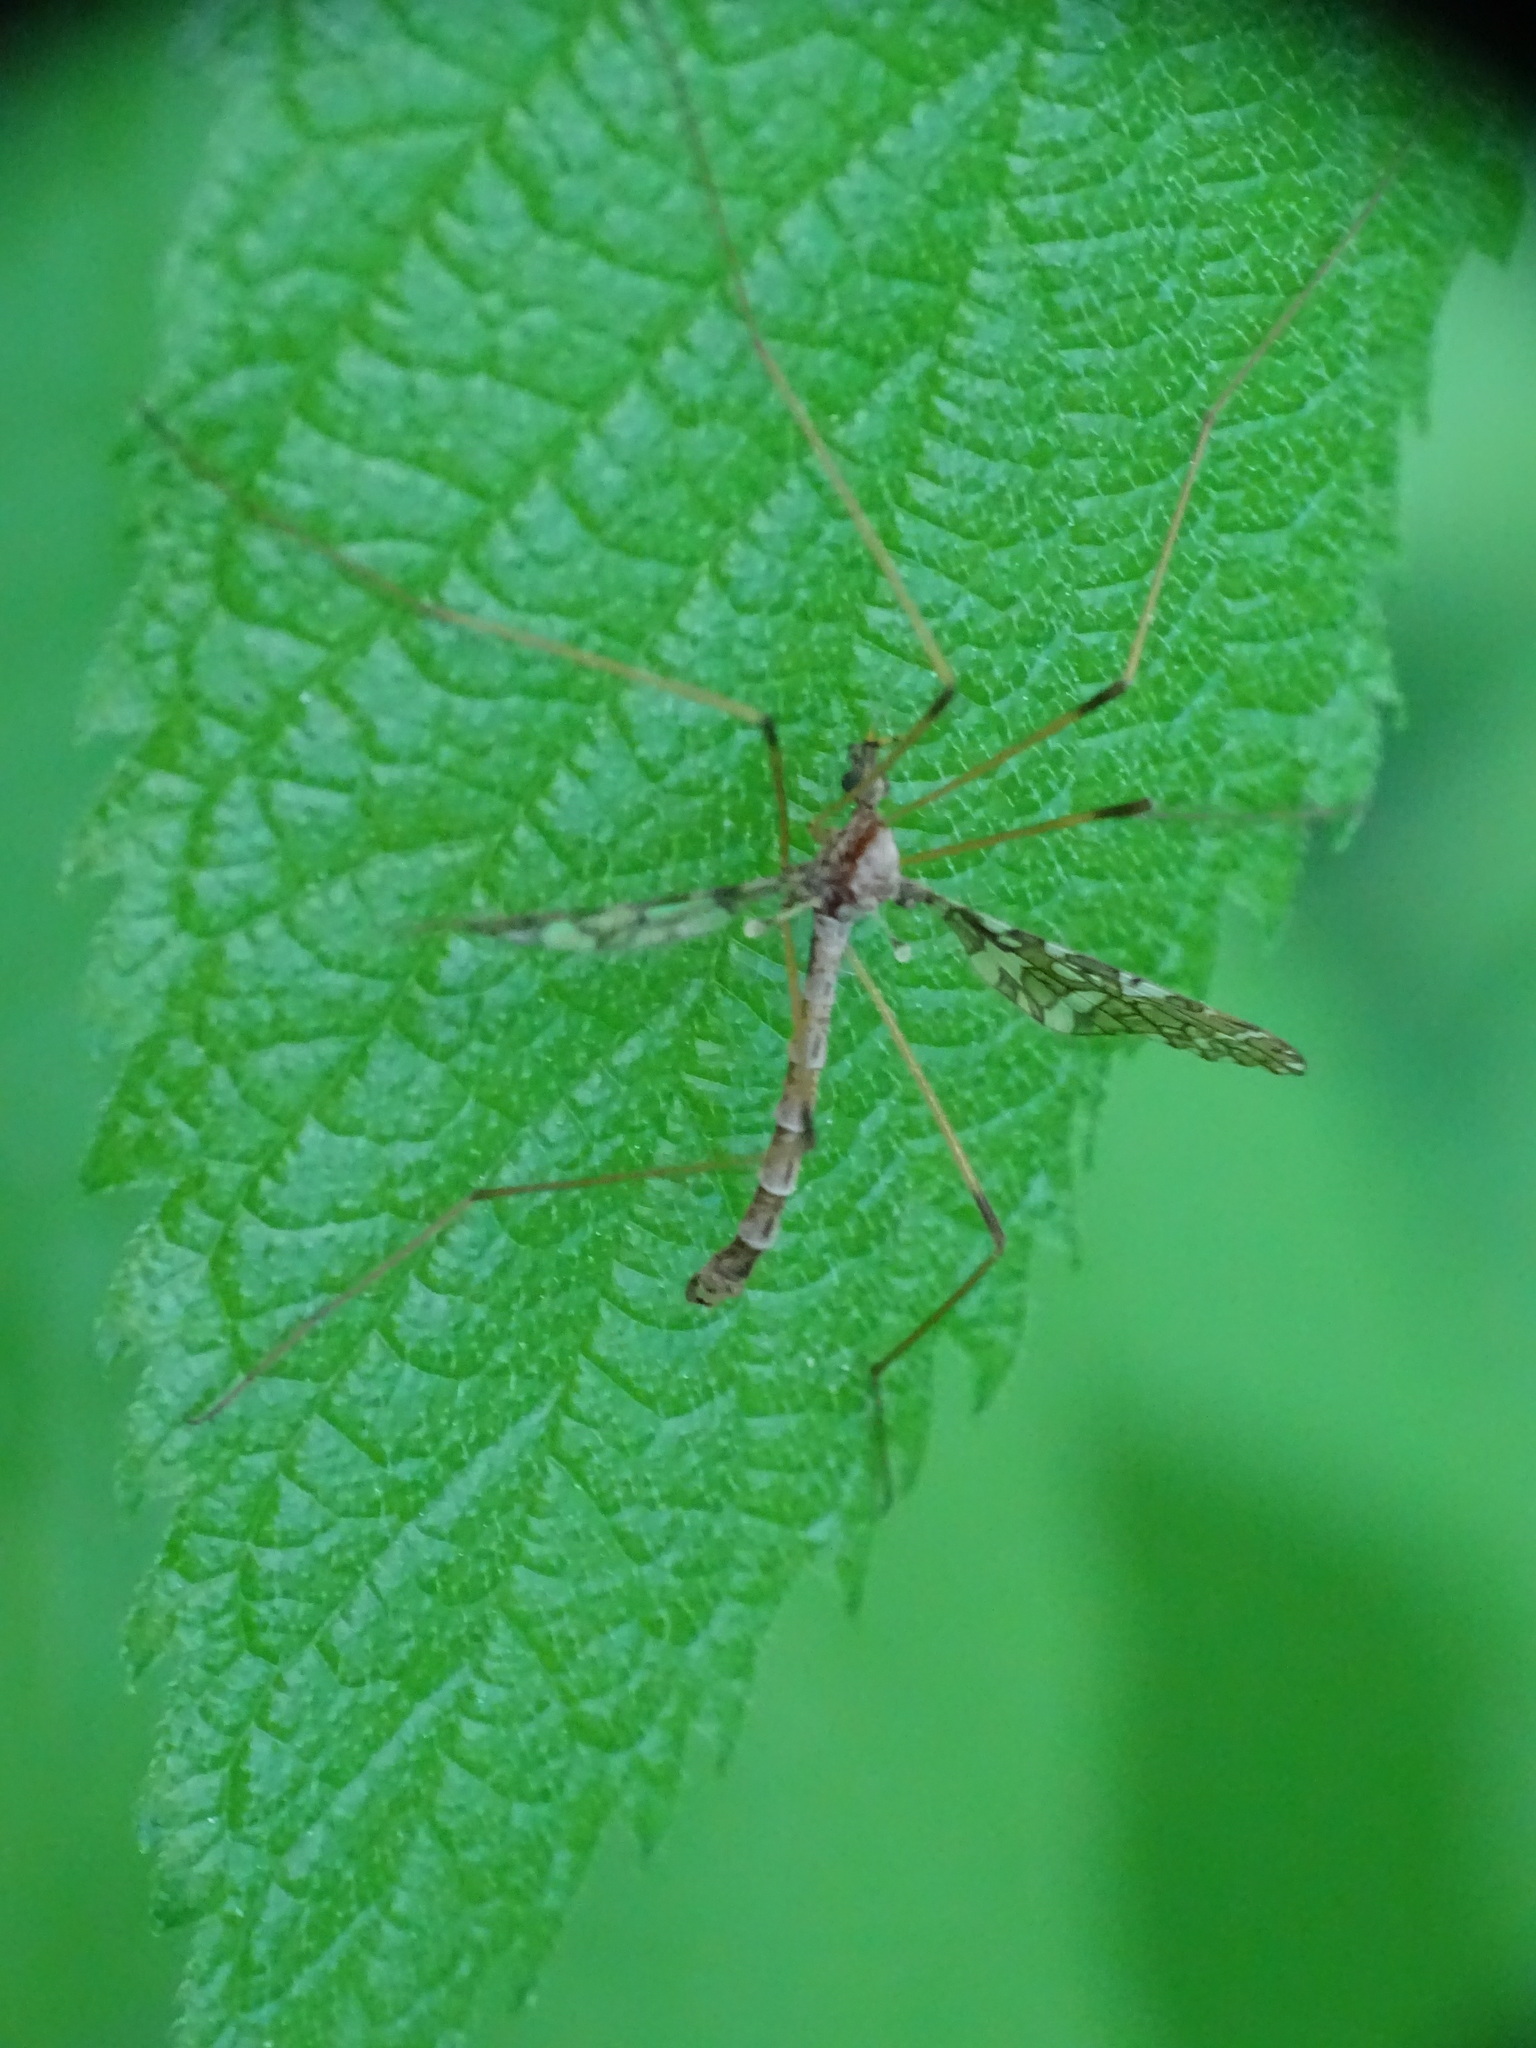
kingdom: Animalia
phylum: Arthropoda
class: Insecta
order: Diptera
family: Limoniidae
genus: Epiphragma
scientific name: Epiphragma fasciapenne
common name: Band-winged crane fly
